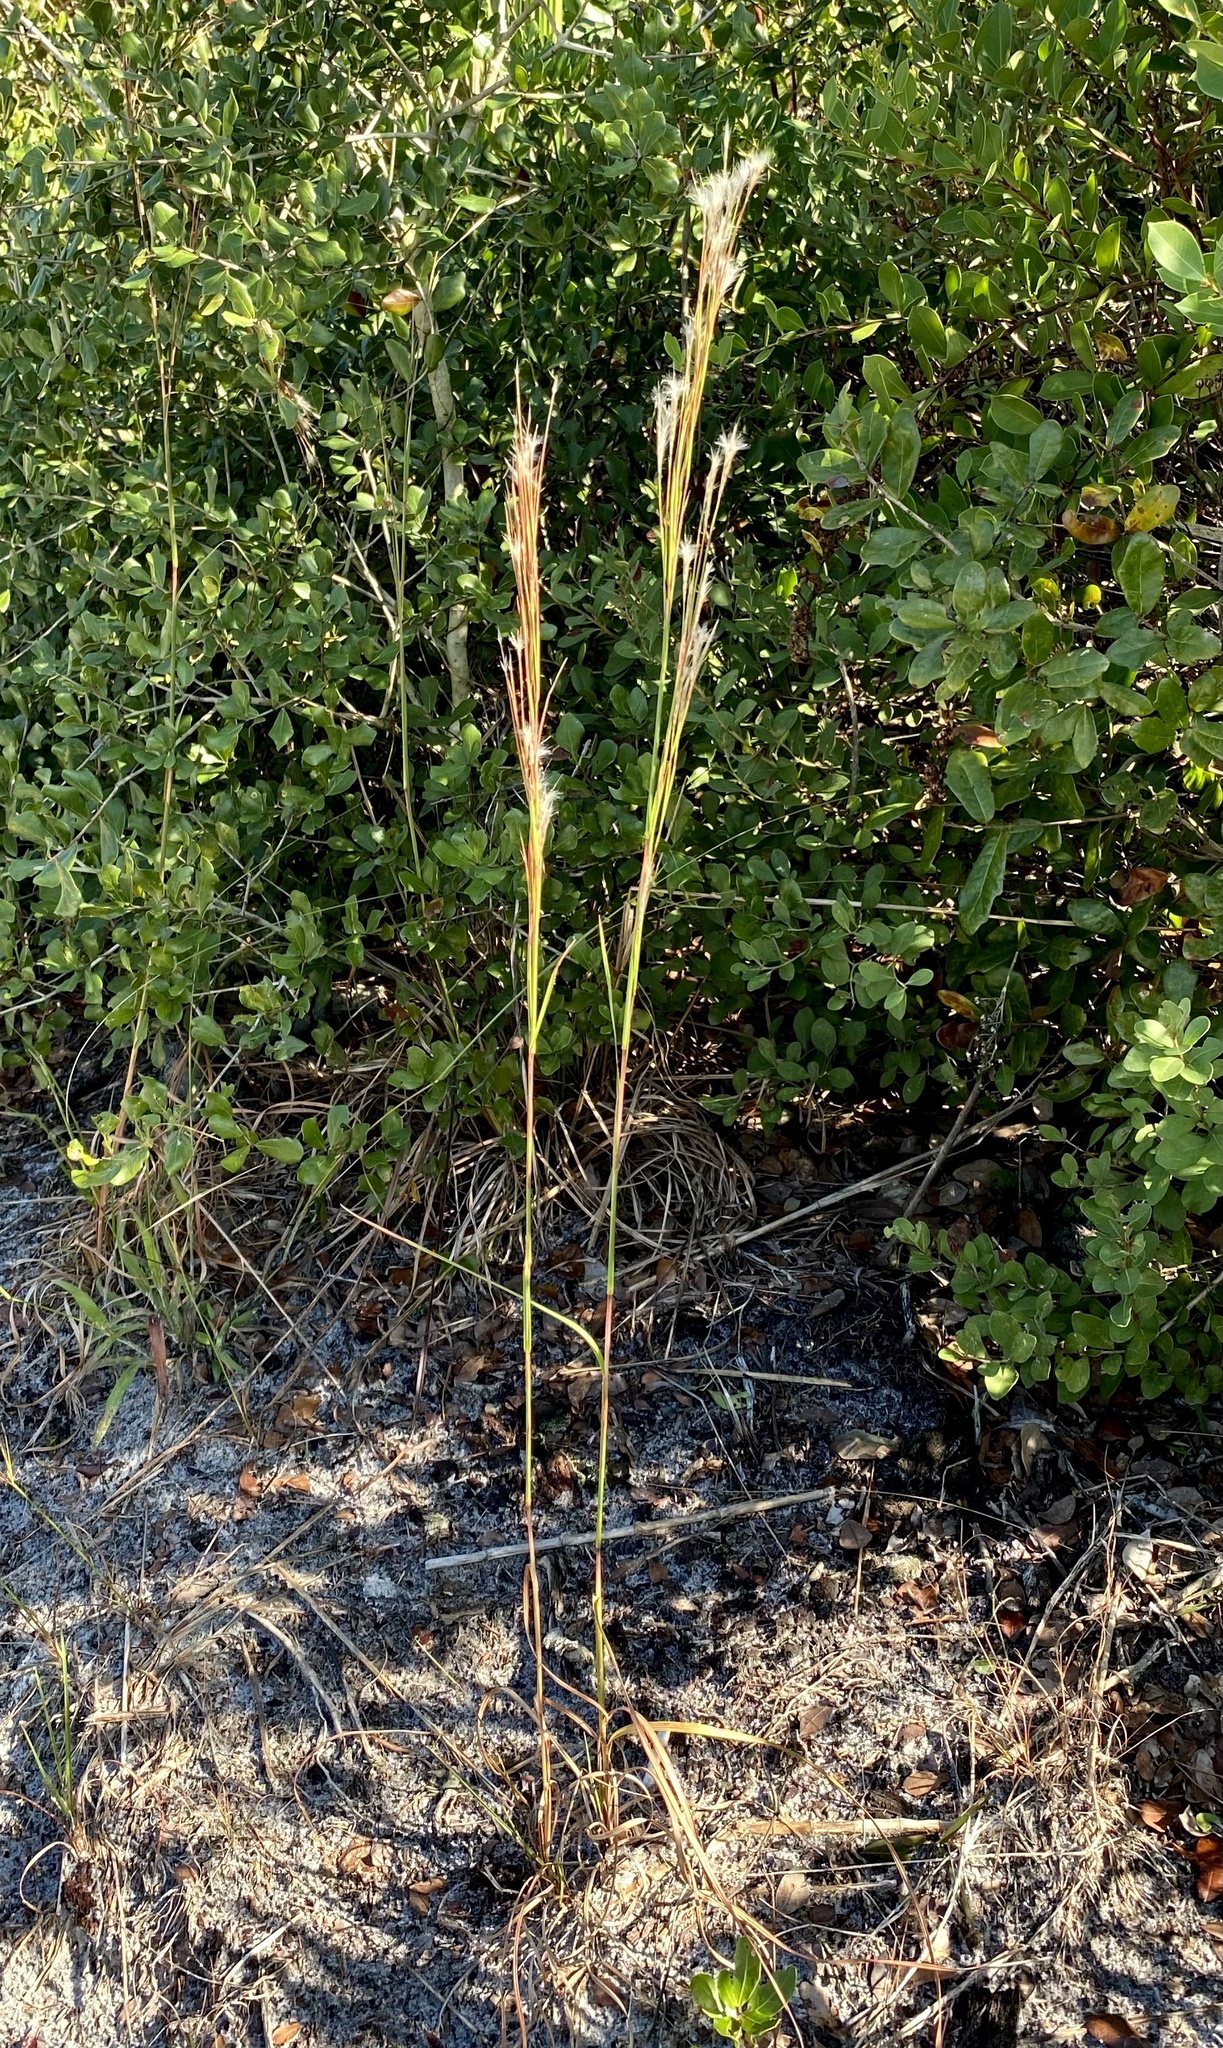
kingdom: Plantae
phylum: Tracheophyta
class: Liliopsida
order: Poales
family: Poaceae
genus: Andropogon
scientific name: Andropogon floridanus
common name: Florida bluestem
